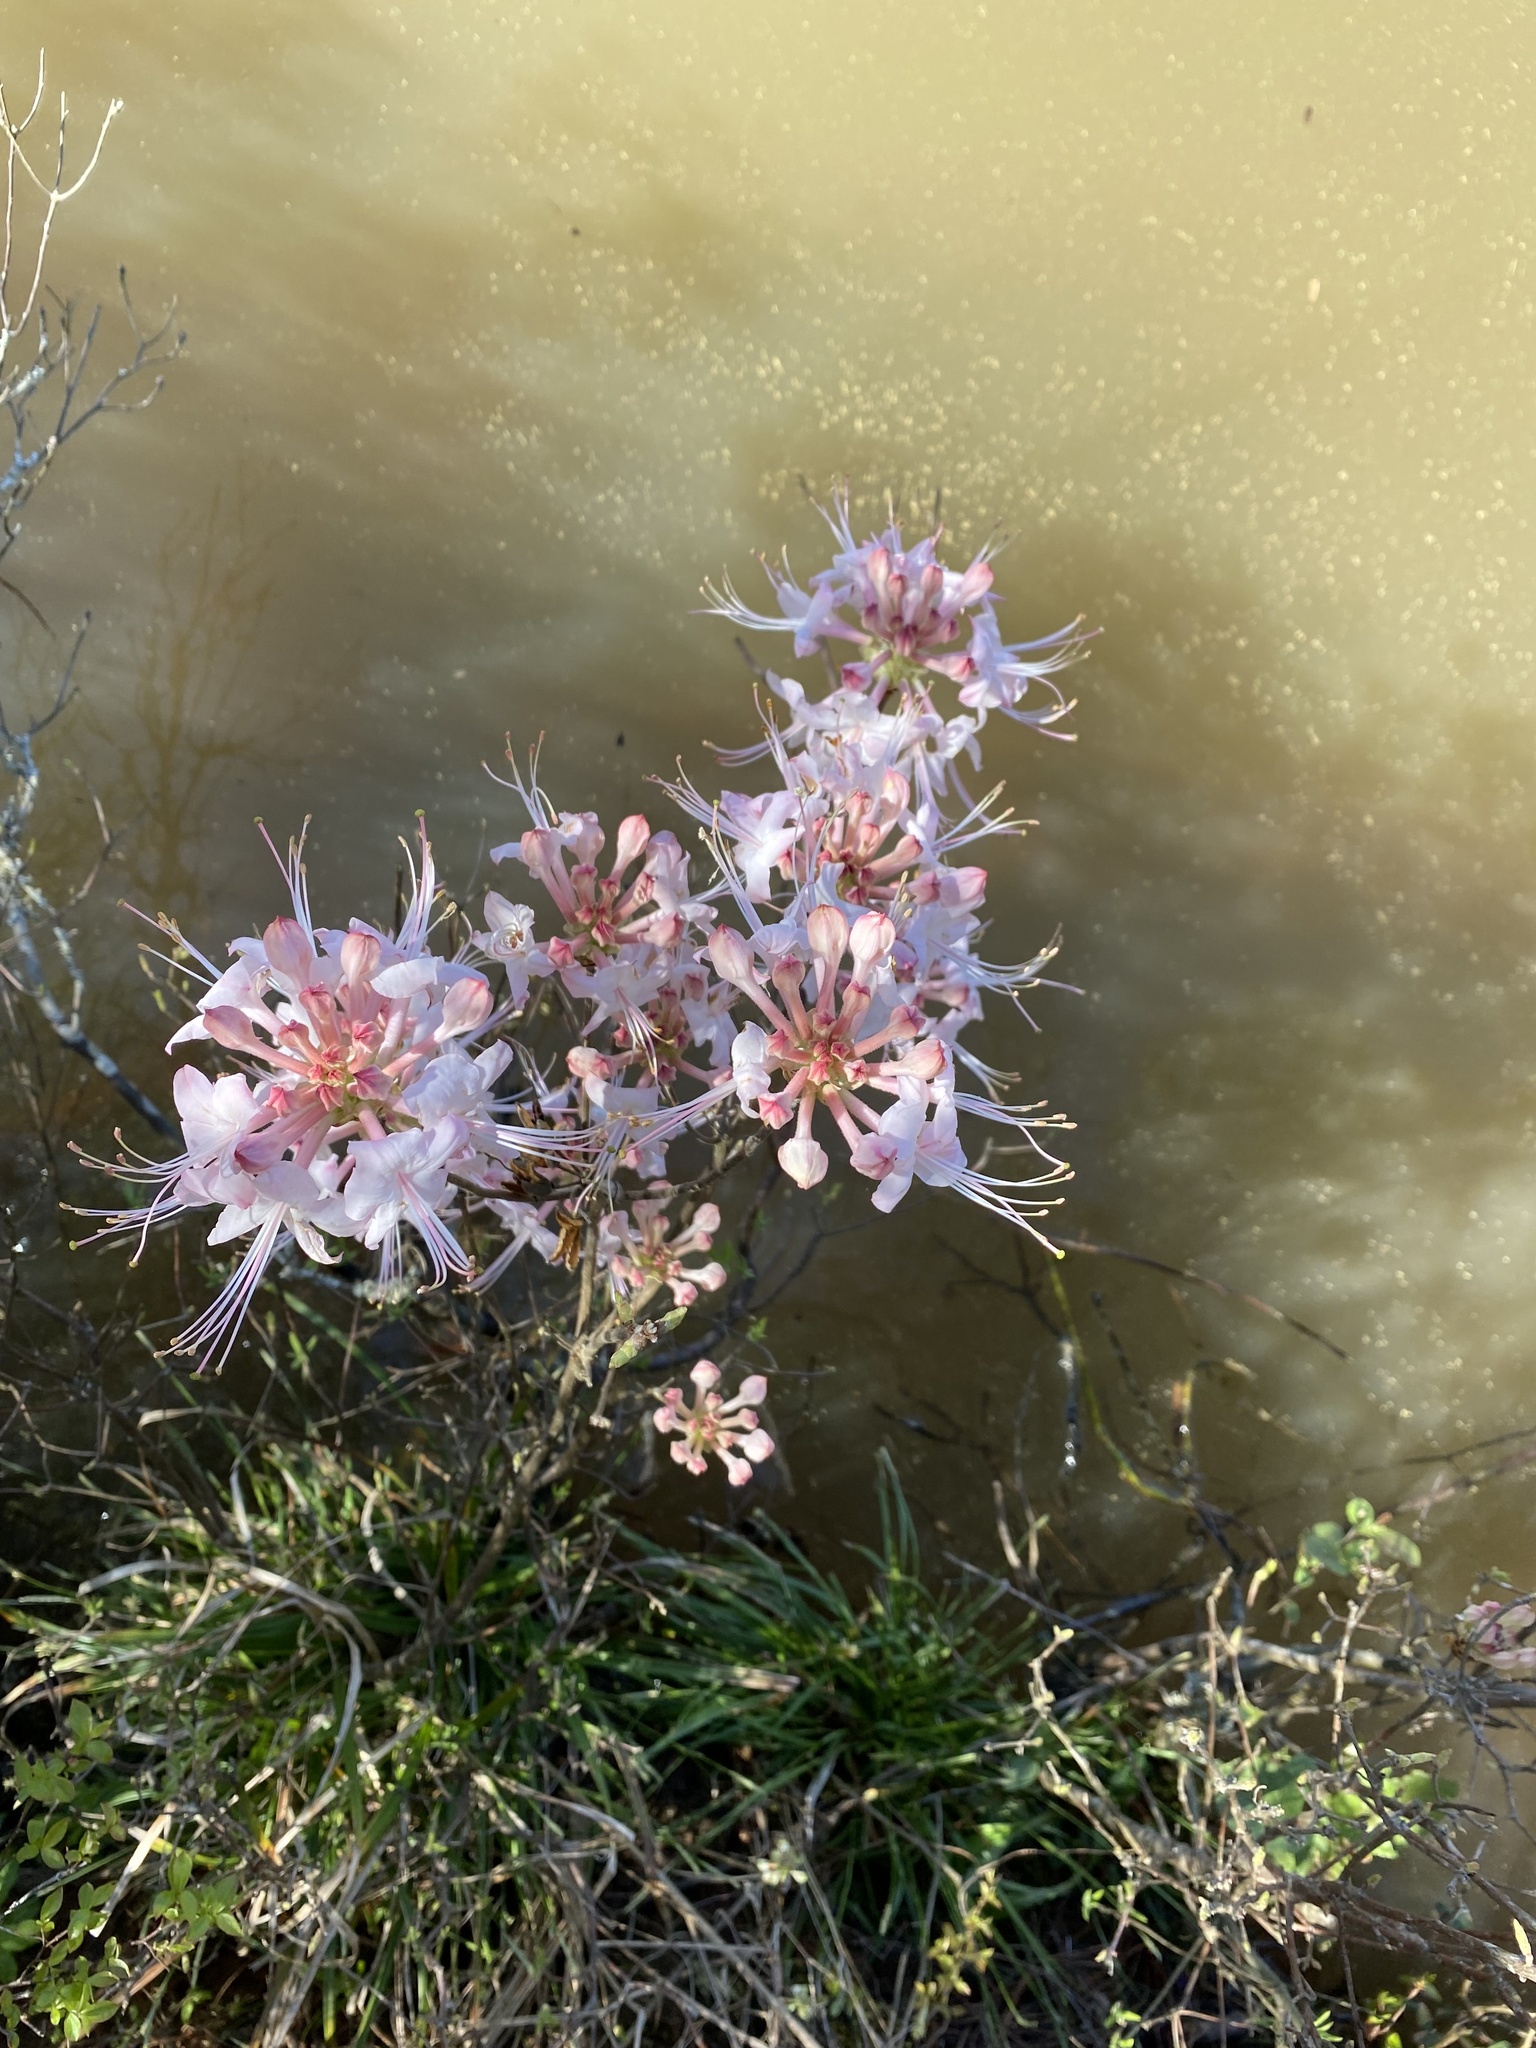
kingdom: Plantae
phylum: Tracheophyta
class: Magnoliopsida
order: Ericales
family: Ericaceae
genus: Rhododendron
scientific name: Rhododendron canescens
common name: Mountain azalea
